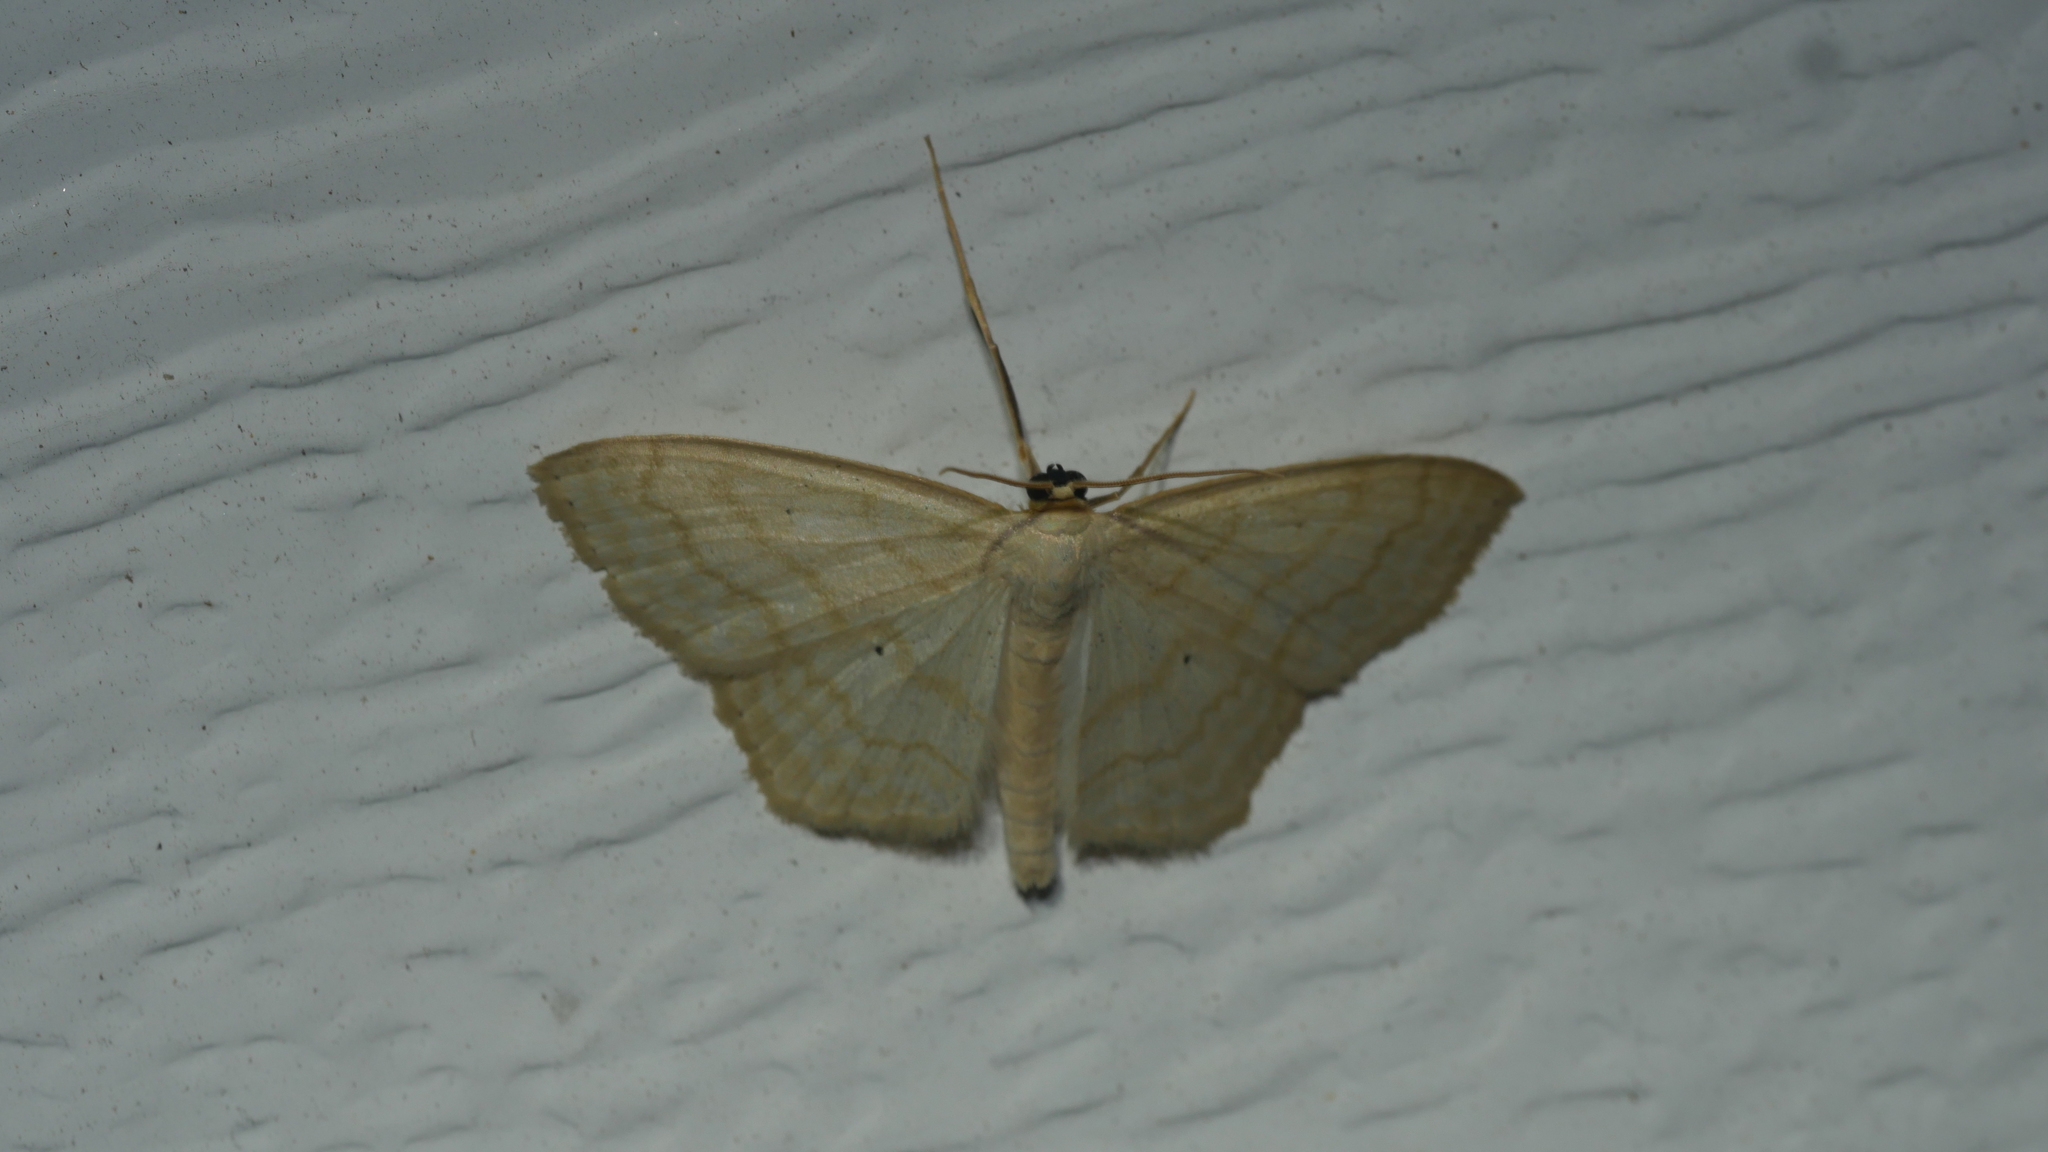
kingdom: Animalia
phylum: Arthropoda
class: Insecta
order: Lepidoptera
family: Geometridae
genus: Scopula
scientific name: Scopula limboundata
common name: Large lace border
